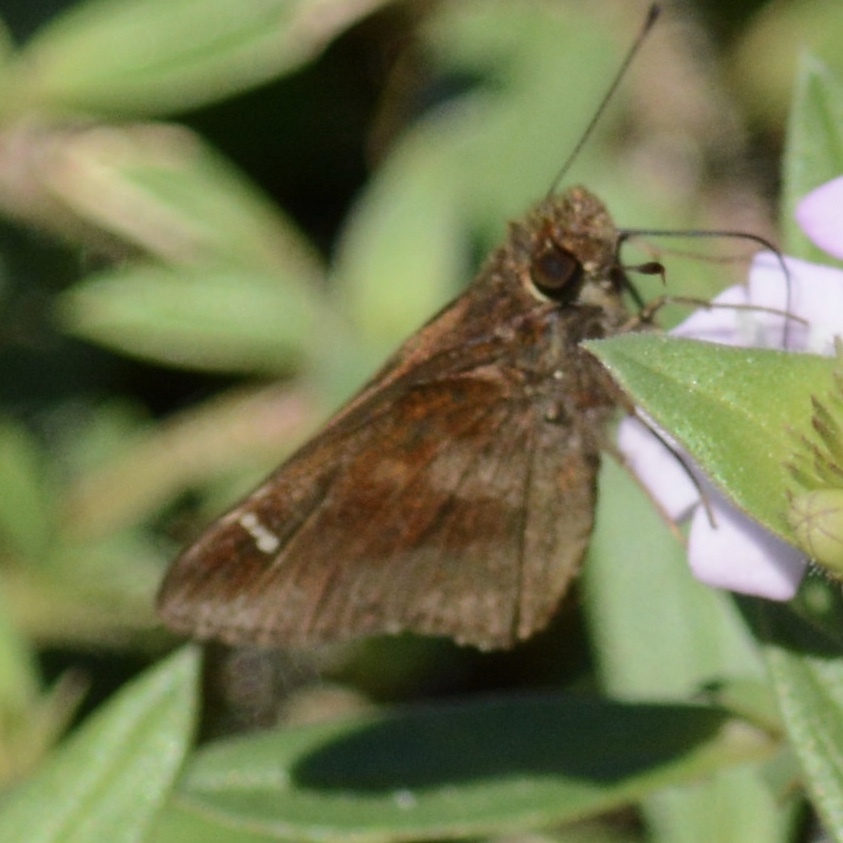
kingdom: Animalia
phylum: Arthropoda
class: Insecta
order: Lepidoptera
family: Hesperiidae
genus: Lerema
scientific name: Lerema accius
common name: Clouded skipper
